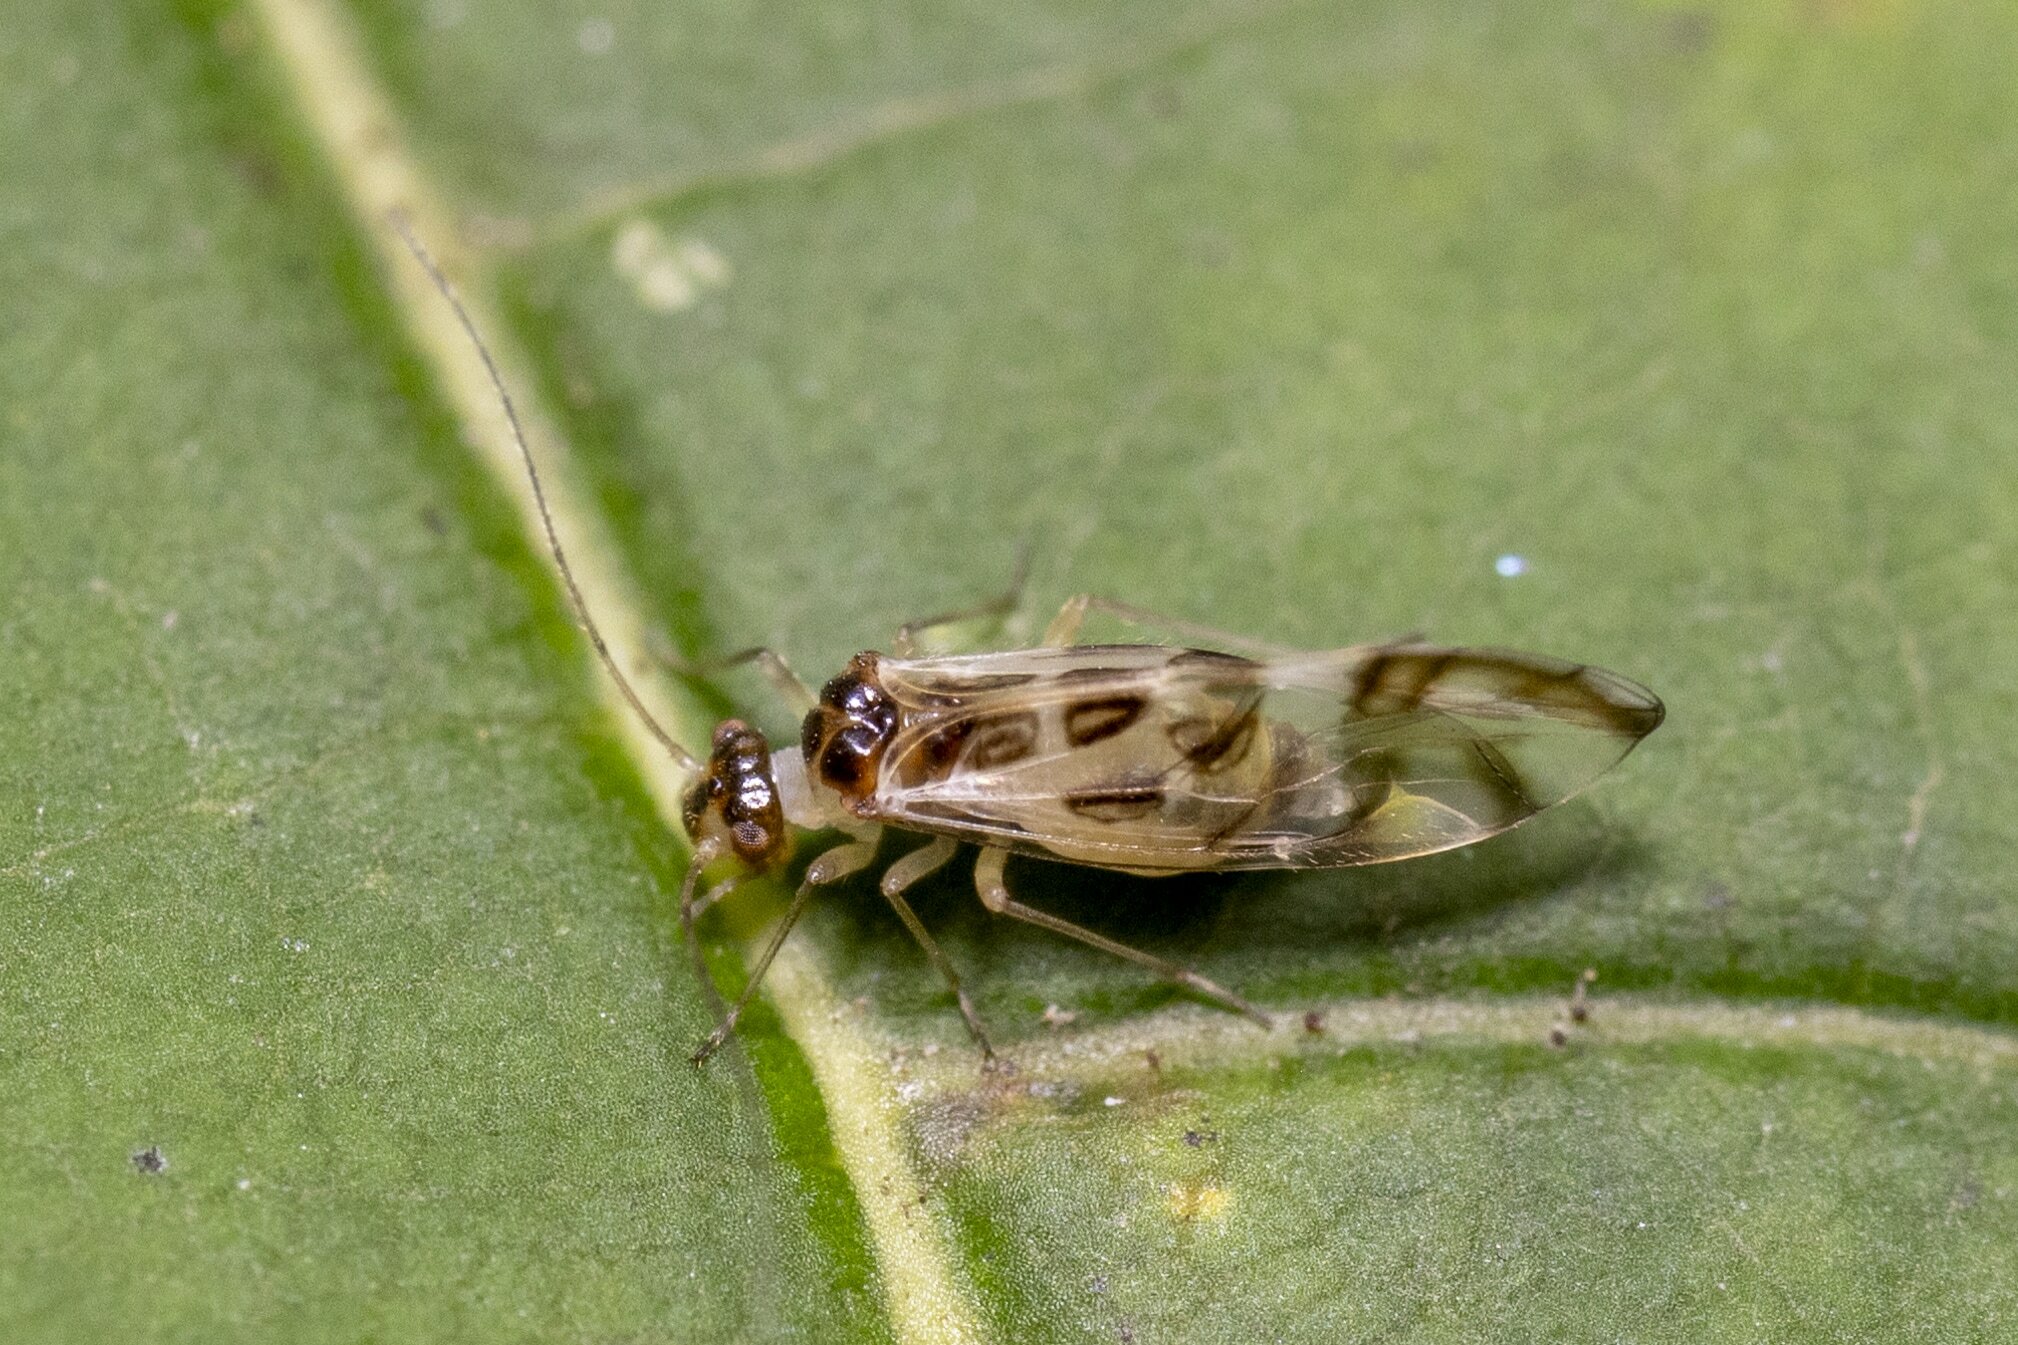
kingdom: Animalia
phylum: Arthropoda
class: Insecta
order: Psocodea
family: Stenopsocidae
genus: Graphopsocus
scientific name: Graphopsocus cruciatus
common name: Lizard bark louse
